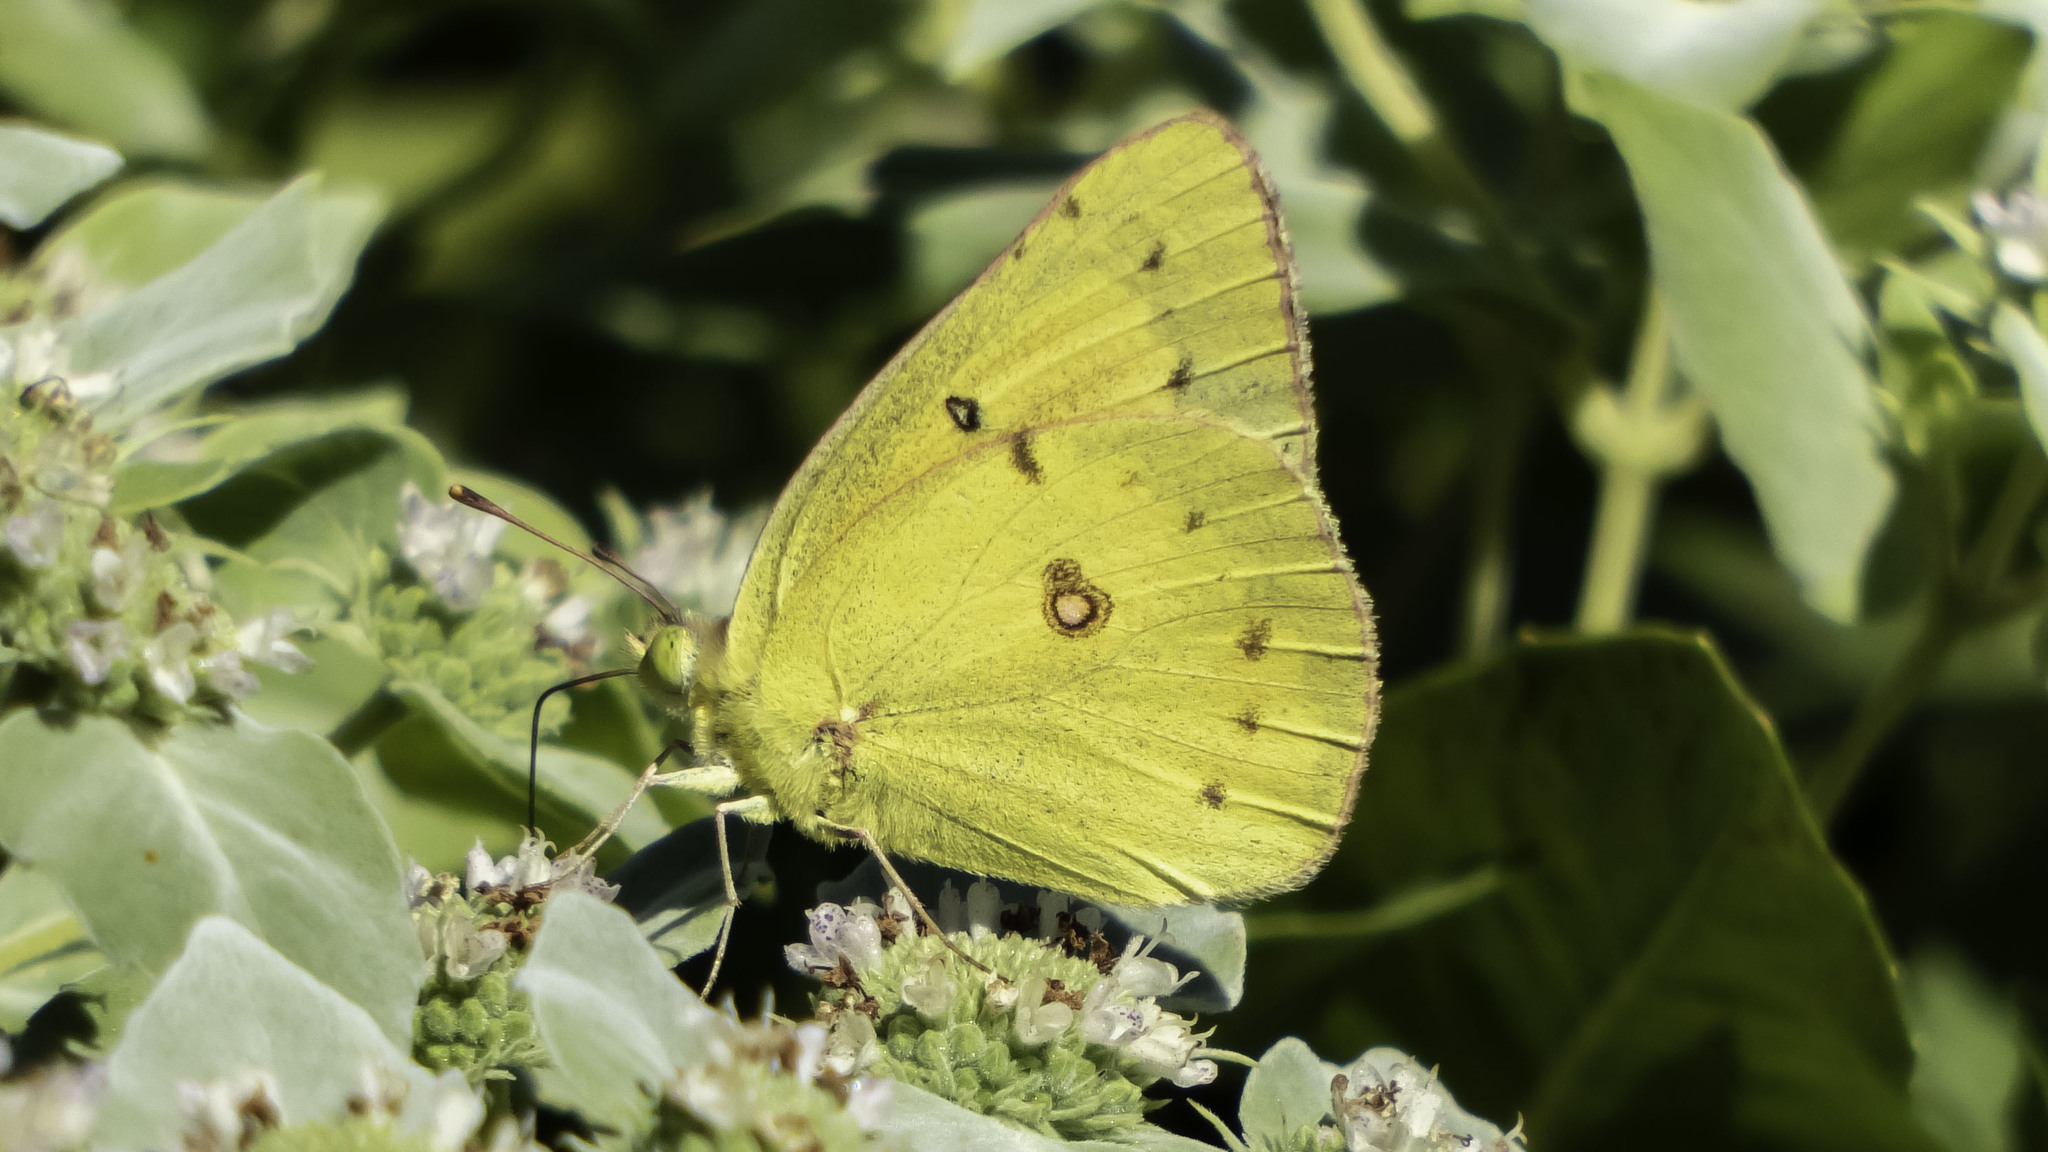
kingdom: Animalia
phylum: Arthropoda
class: Insecta
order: Lepidoptera
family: Pieridae
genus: Colias
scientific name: Colias eurytheme
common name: Alfalfa butterfly
